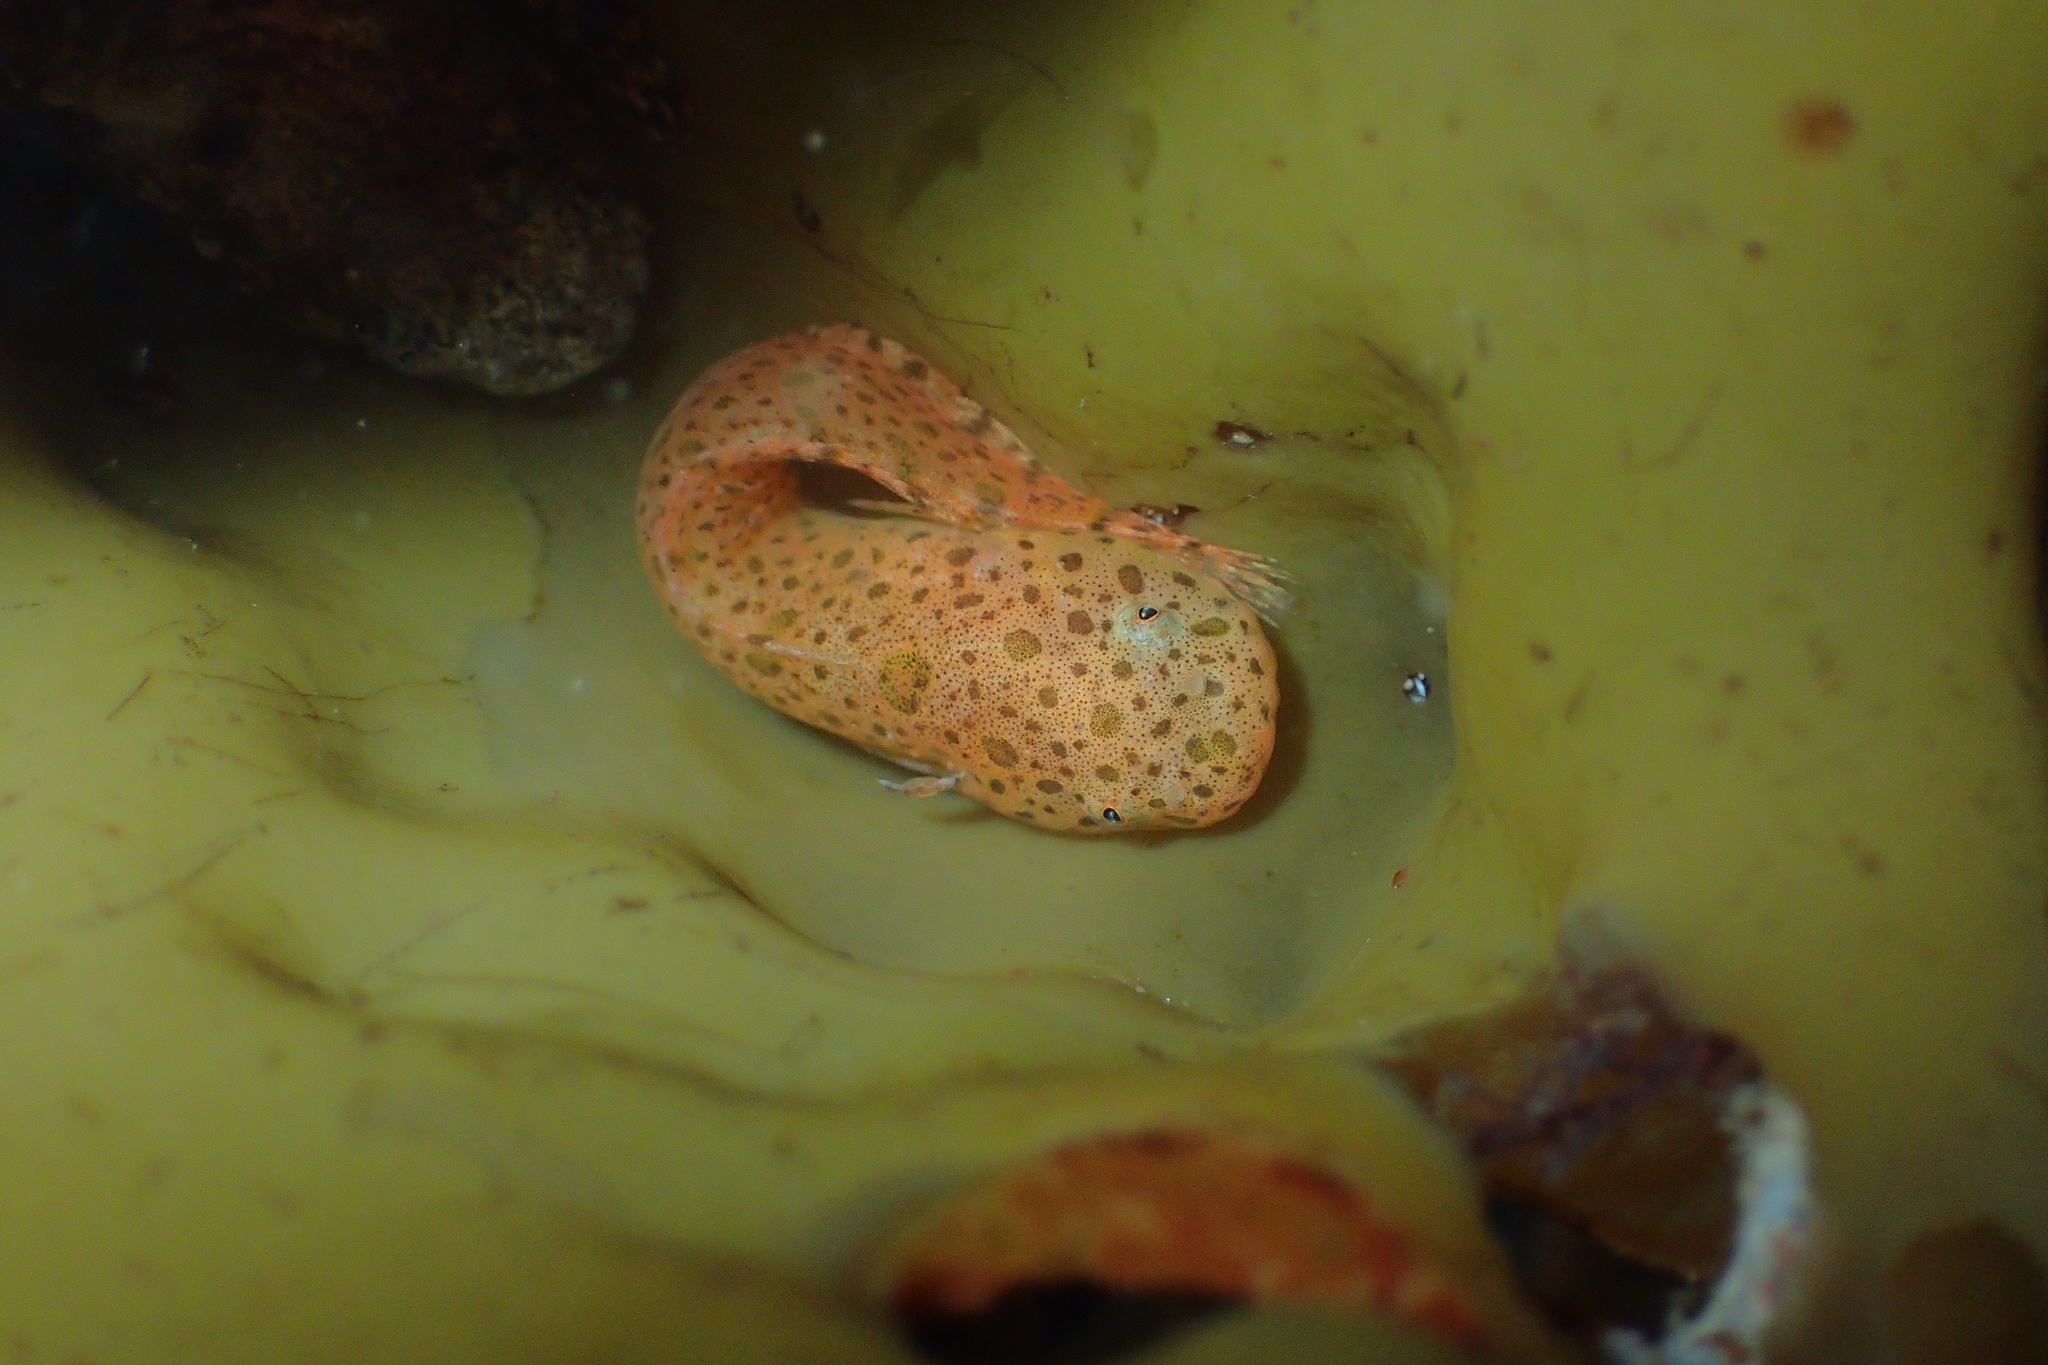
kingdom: Animalia
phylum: Chordata
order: Scorpaeniformes
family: Liparidae
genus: Liparis
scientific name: Liparis montagui
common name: Montagu's sea-snail
